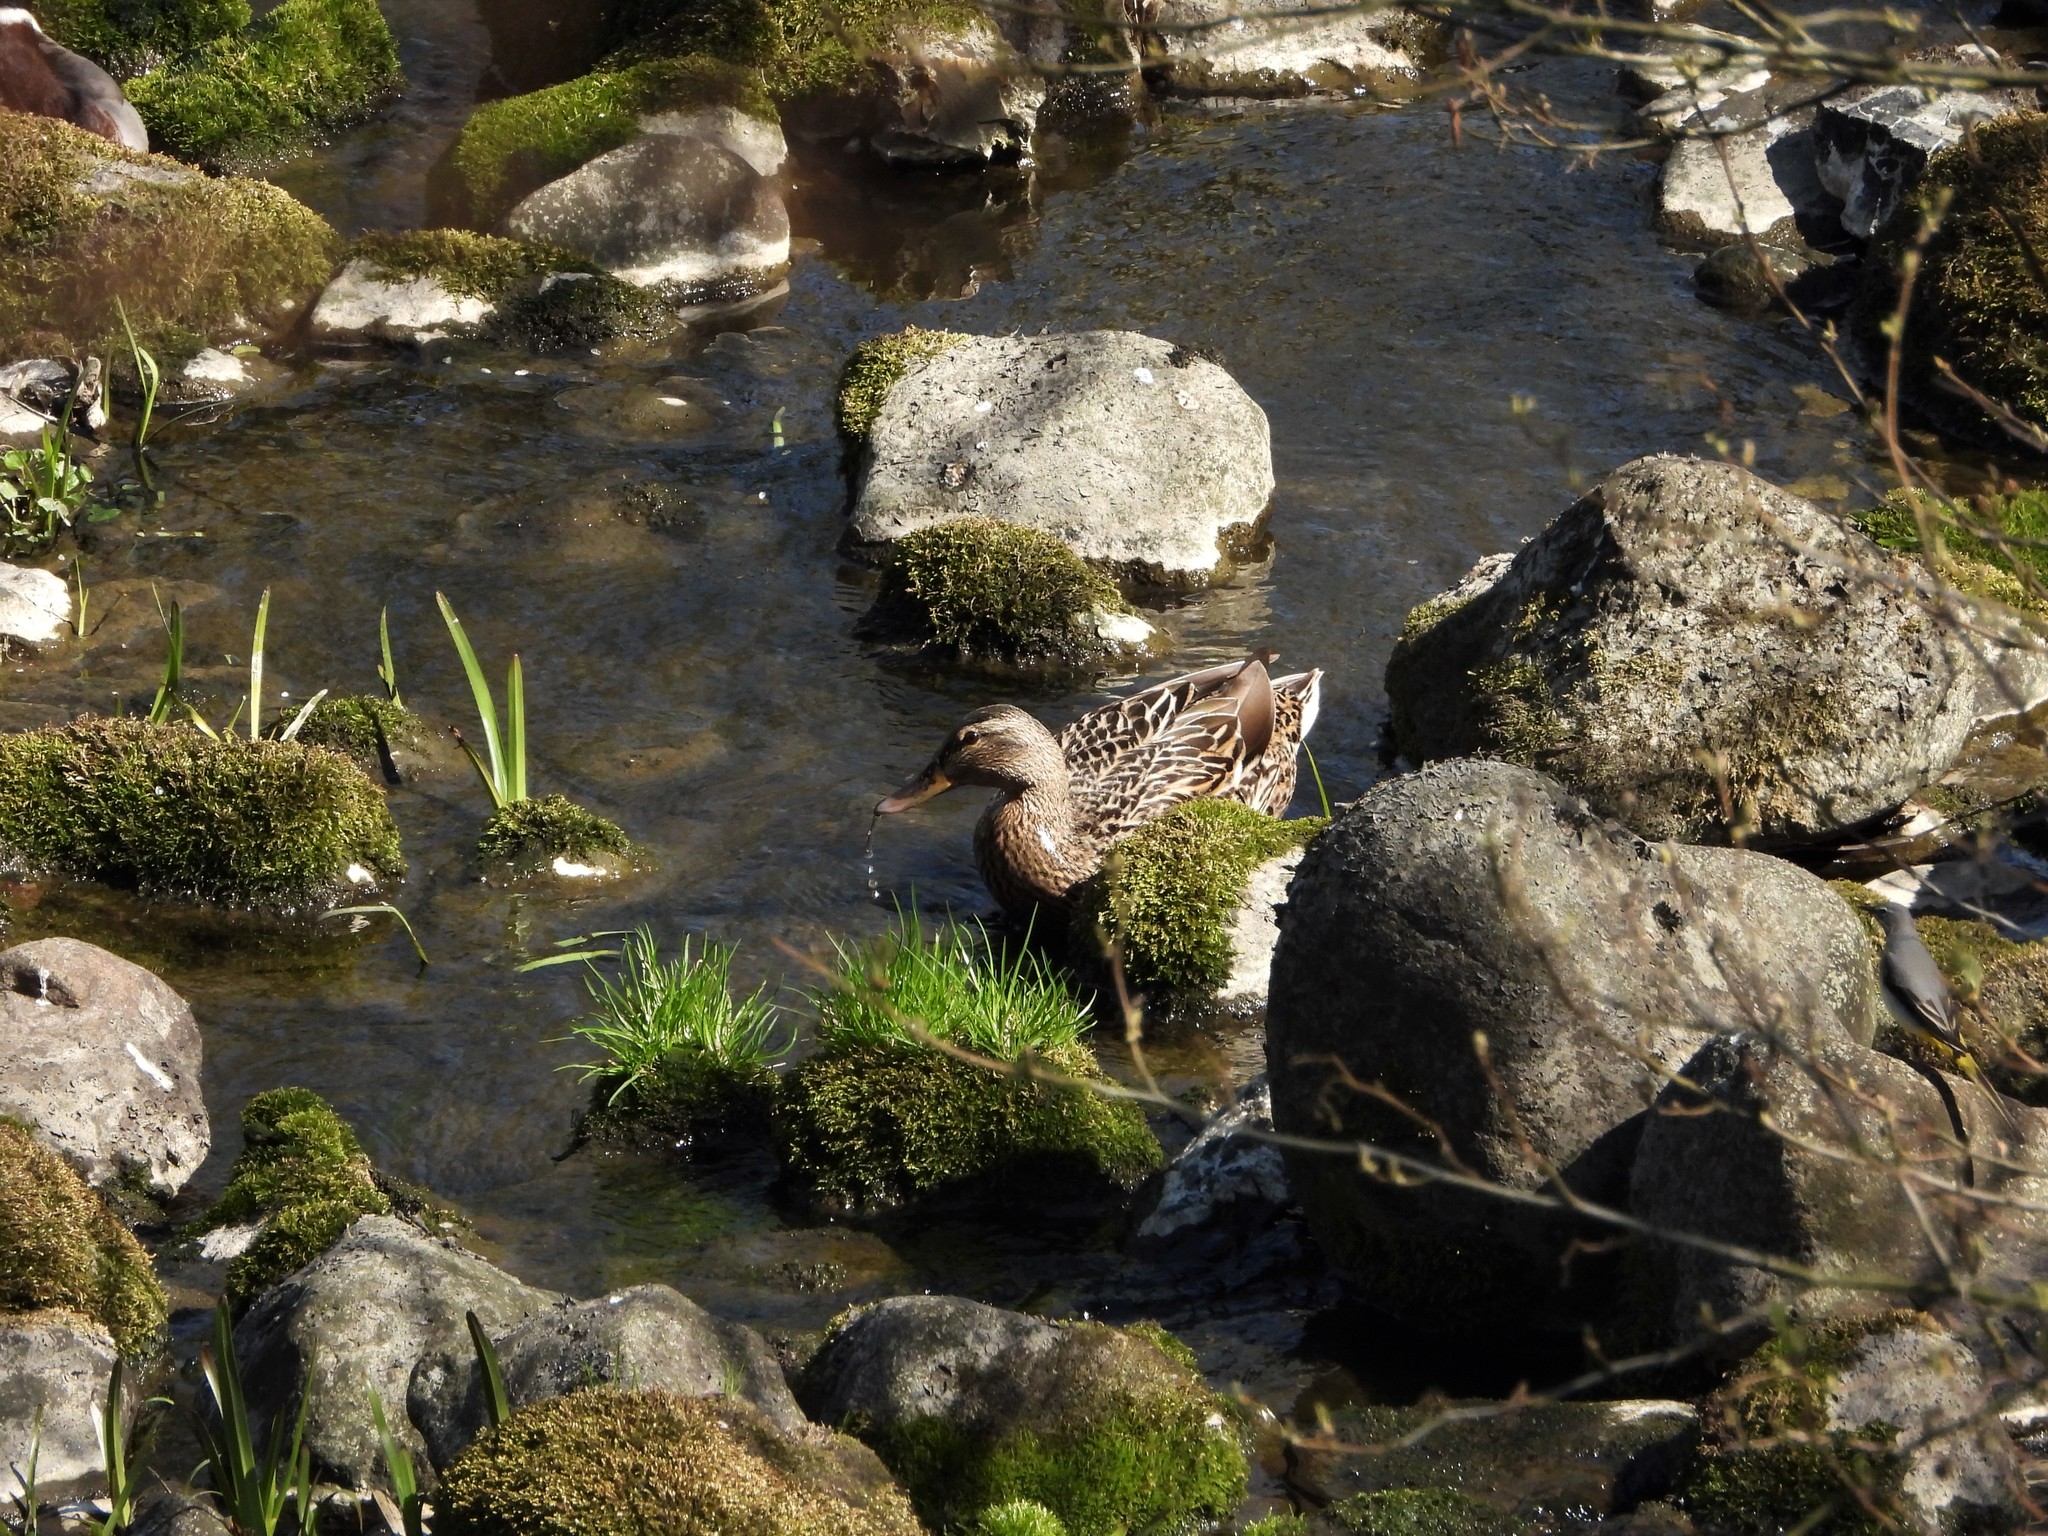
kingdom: Animalia
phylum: Chordata
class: Aves
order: Anseriformes
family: Anatidae
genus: Anas
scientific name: Anas platyrhynchos
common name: Mallard
